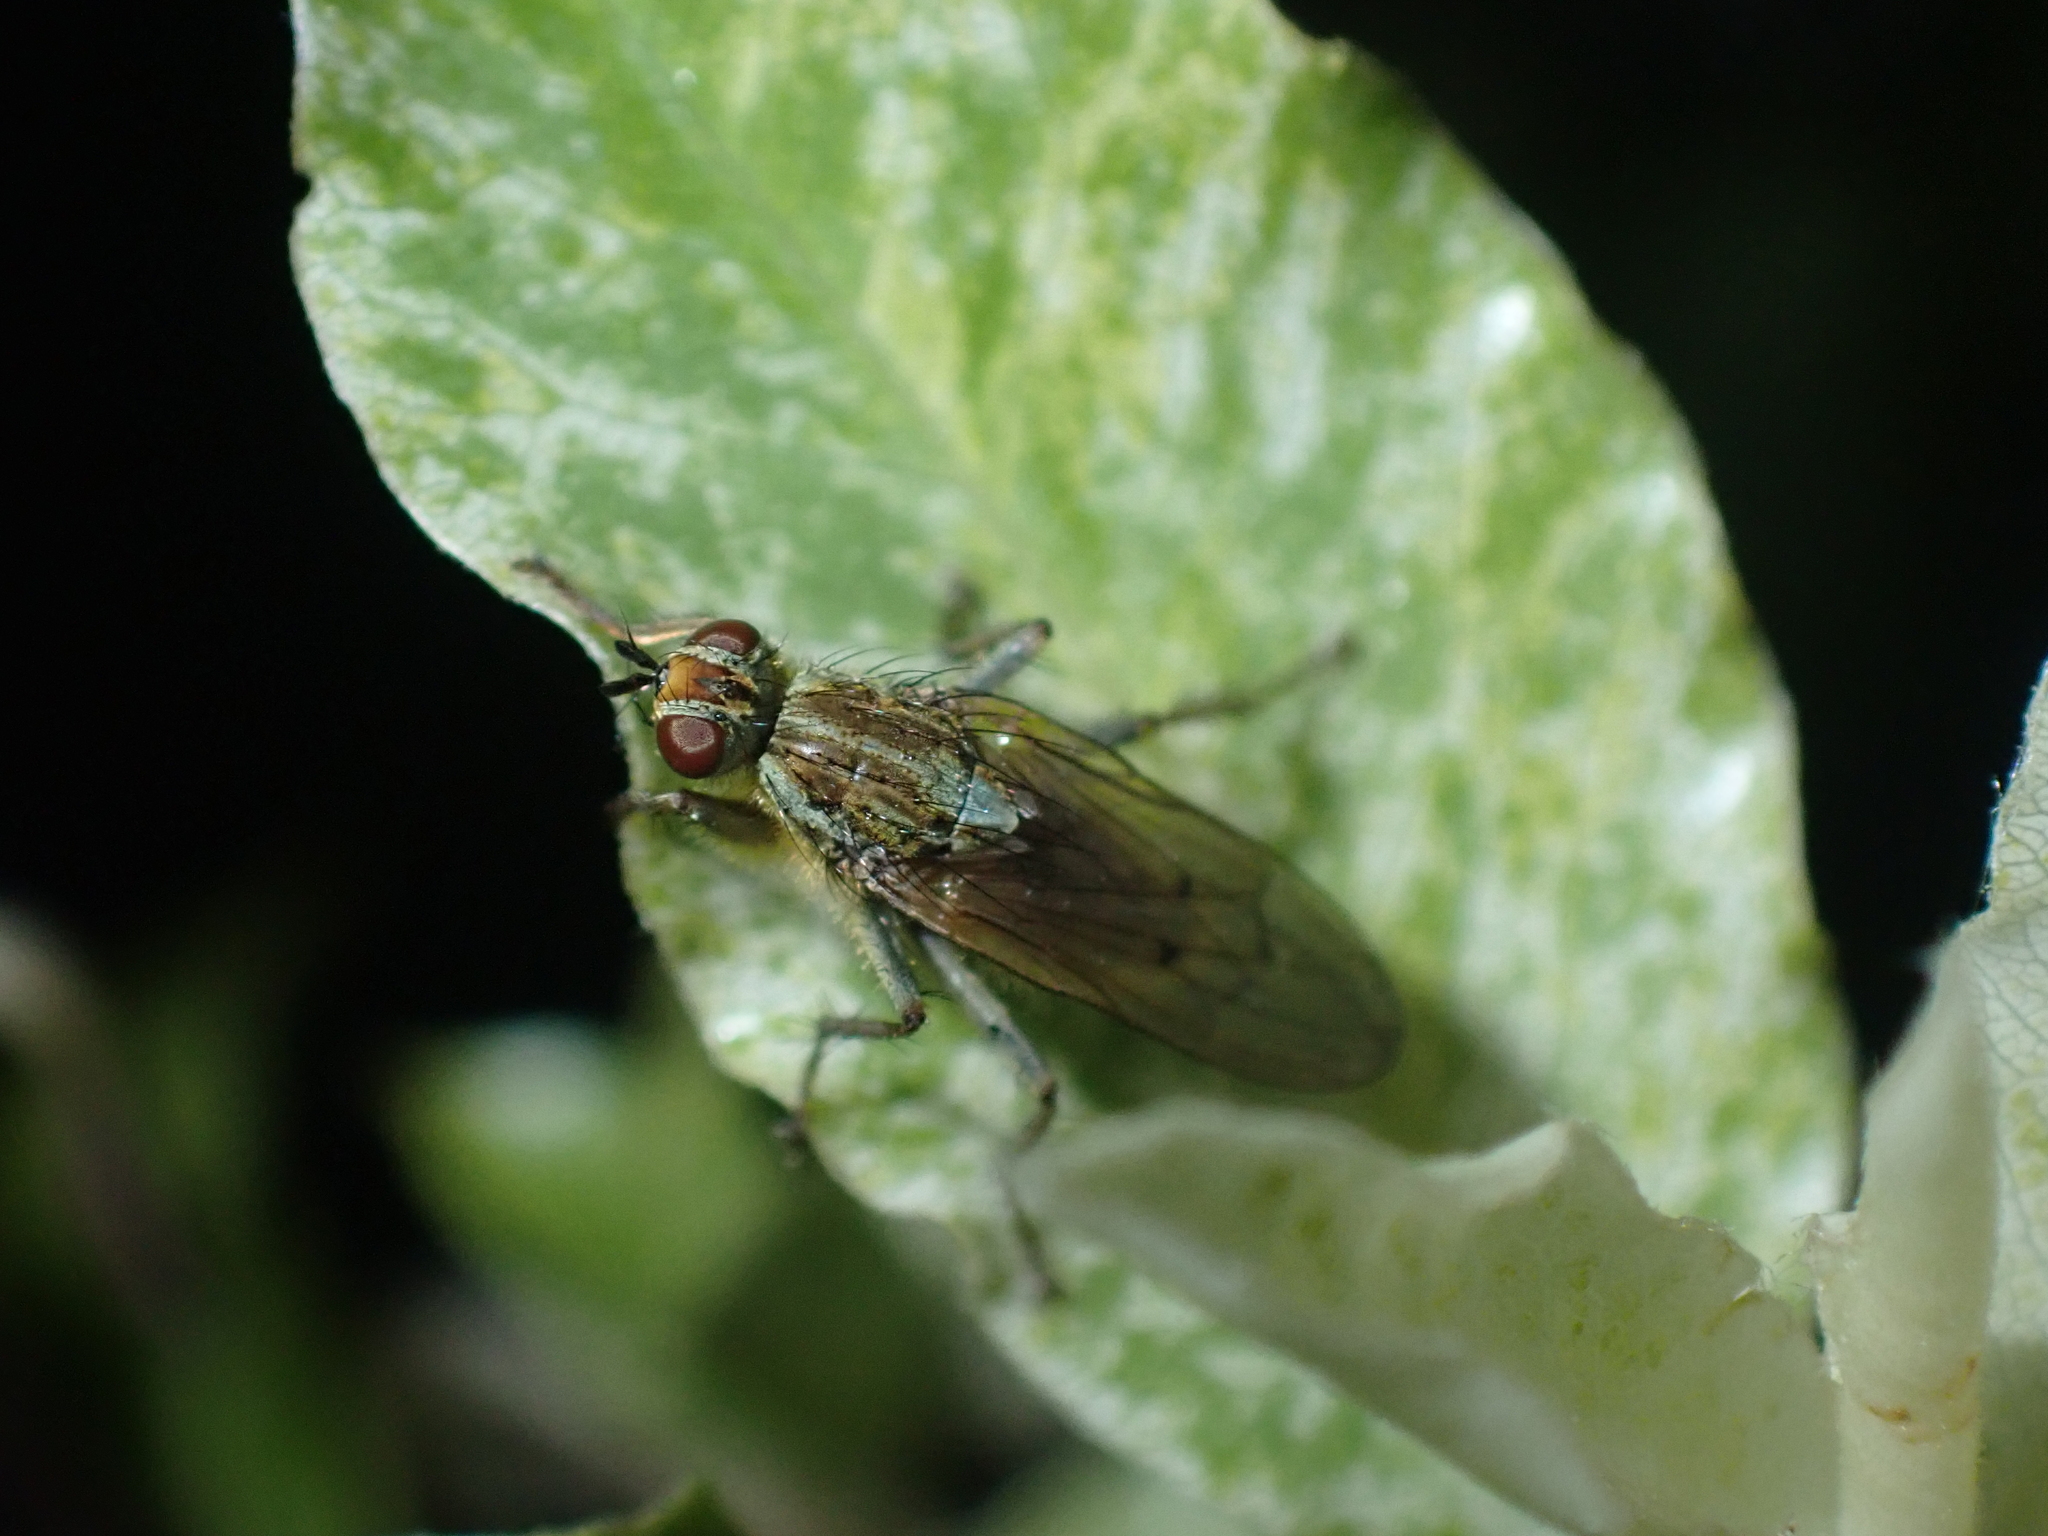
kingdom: Animalia
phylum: Arthropoda
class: Insecta
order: Diptera
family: Scathophagidae
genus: Scathophaga
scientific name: Scathophaga stercoraria
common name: Yellow dung fly
